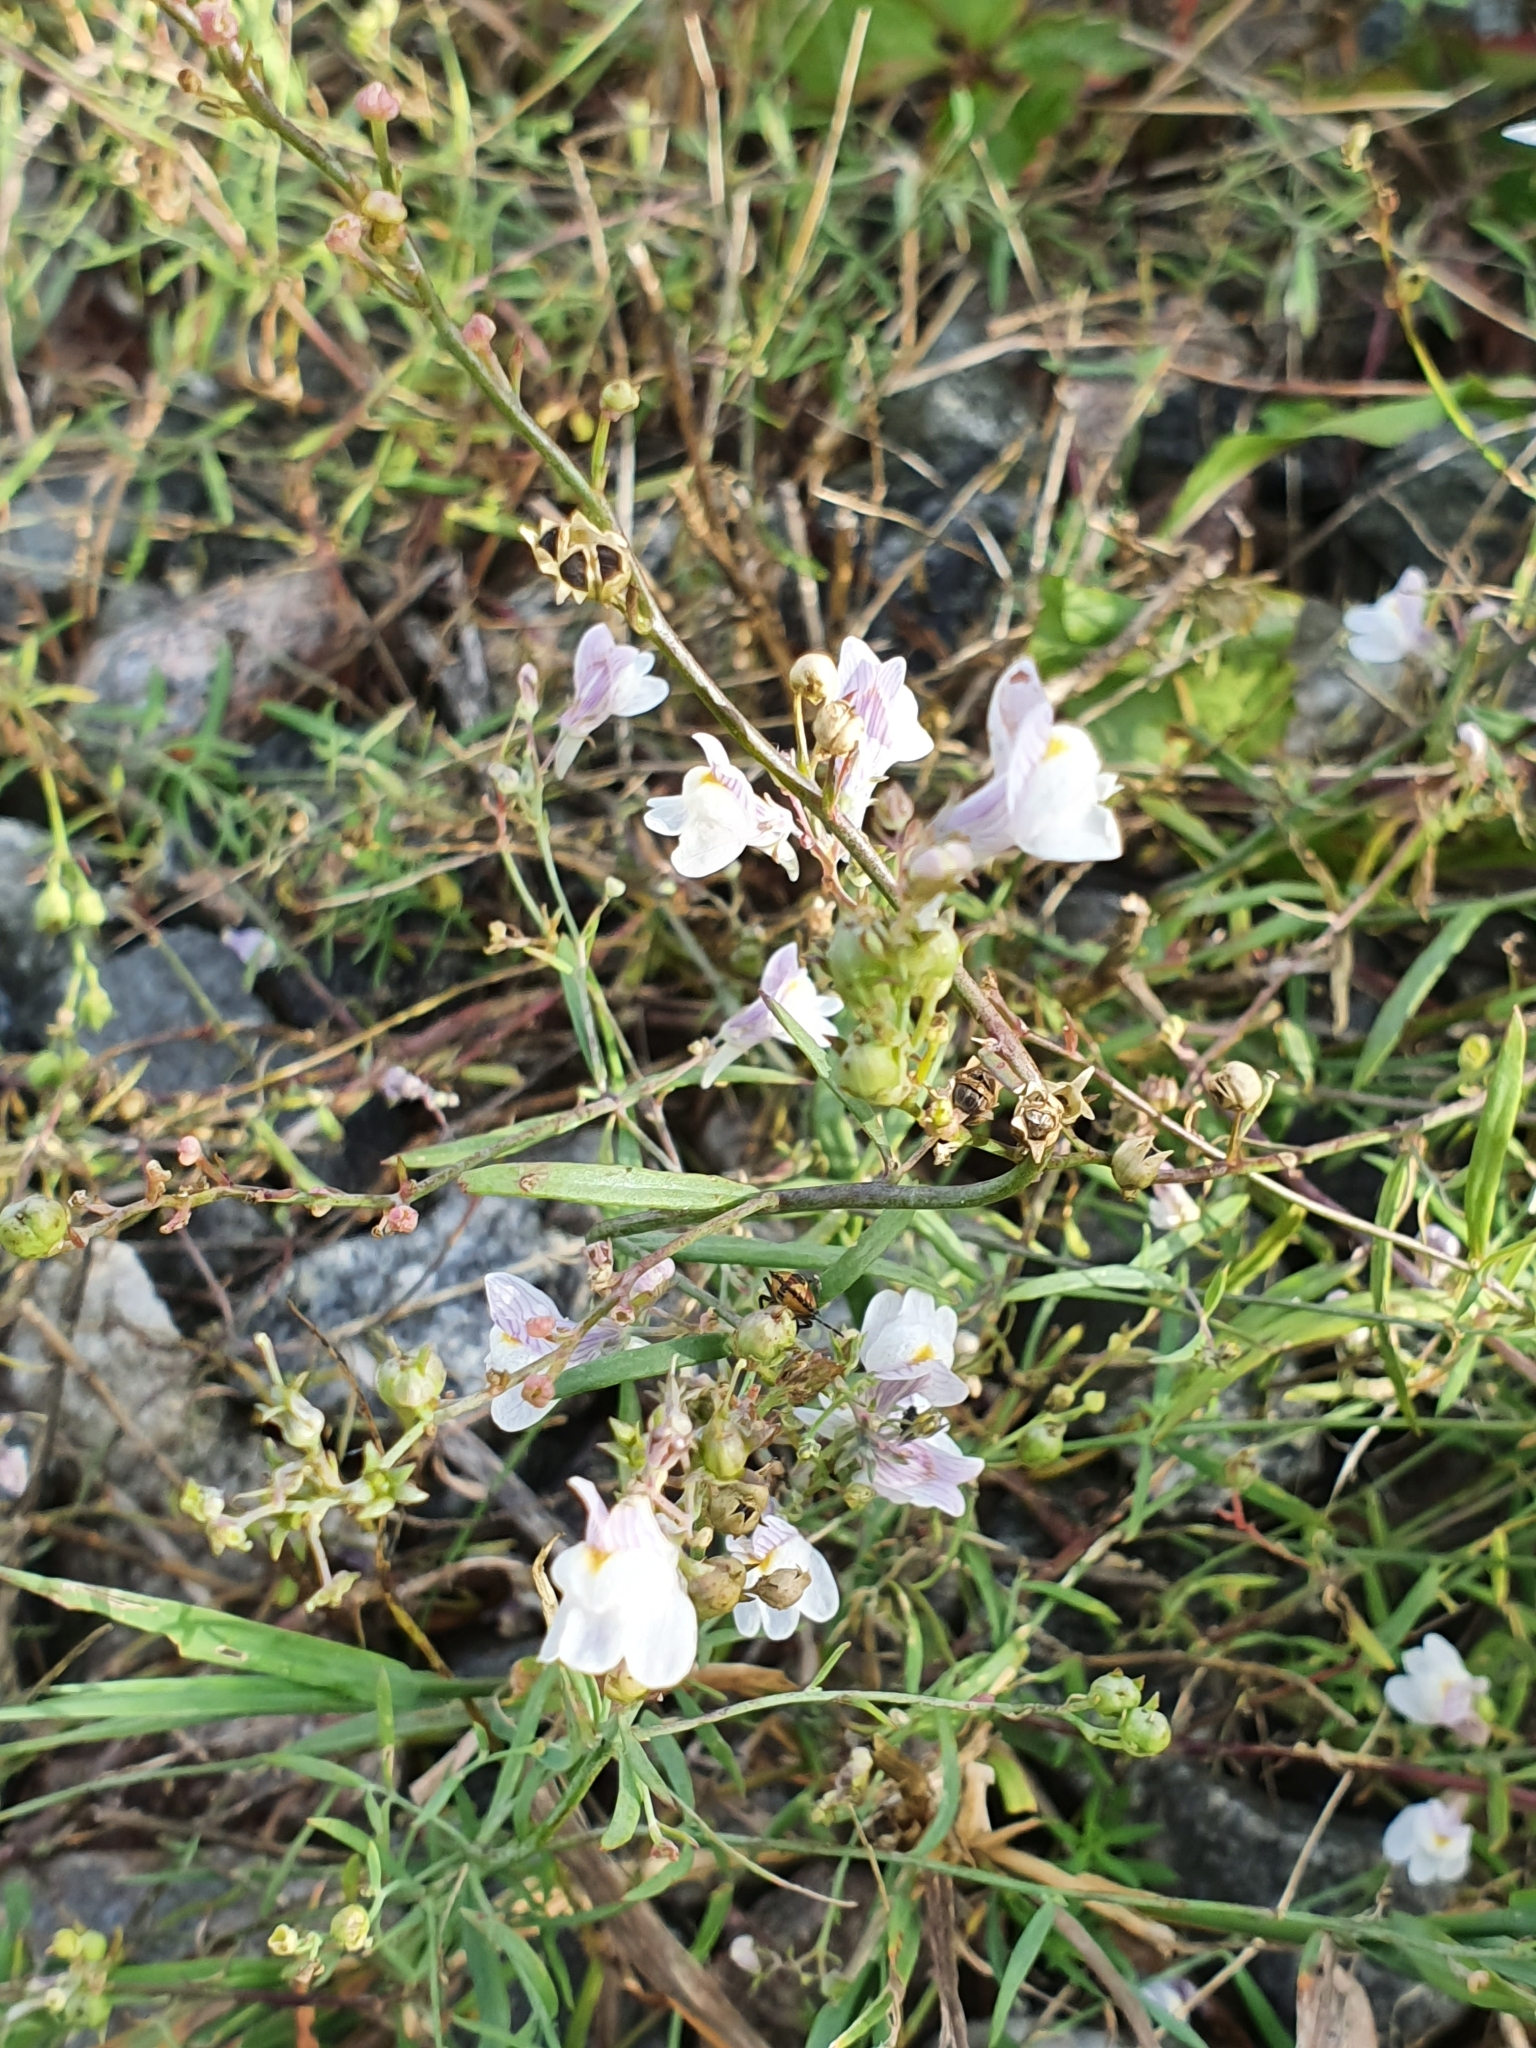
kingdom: Plantae
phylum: Tracheophyta
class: Magnoliopsida
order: Lamiales
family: Plantaginaceae
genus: Linaria
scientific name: Linaria repens
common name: Pale toadflax
